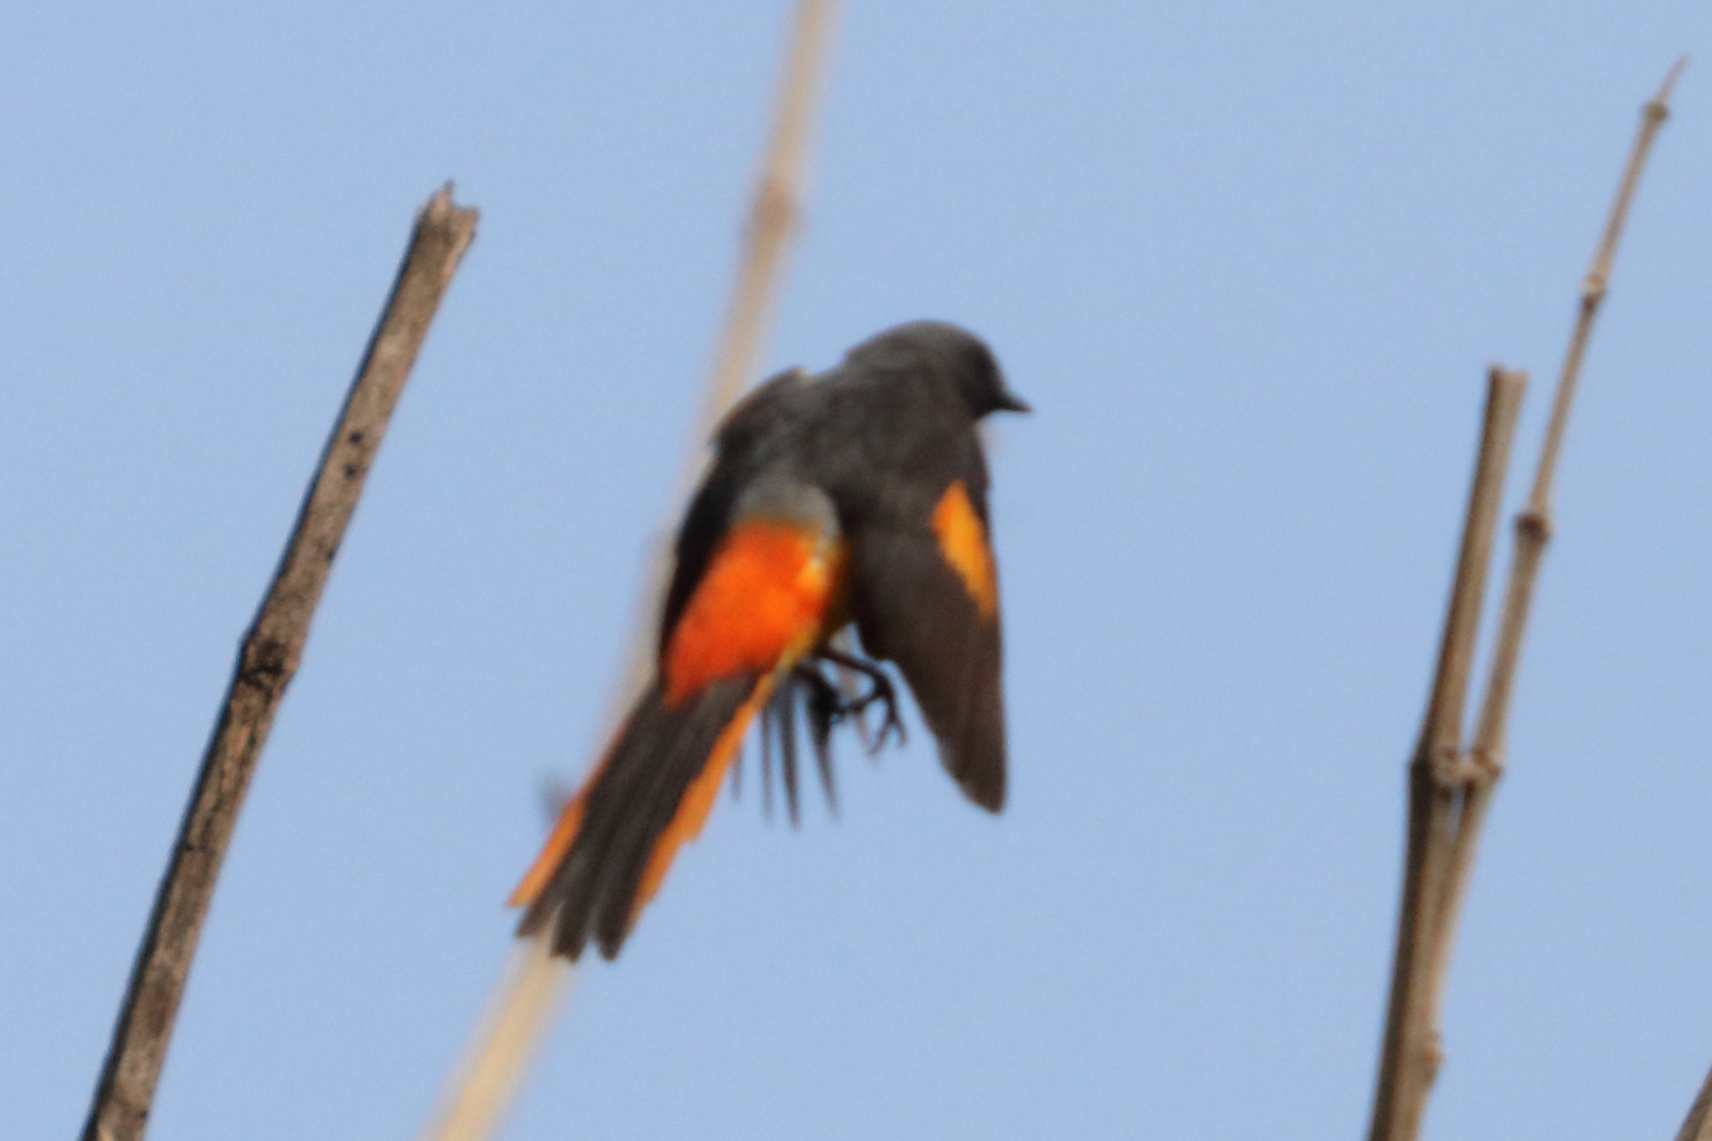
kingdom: Animalia
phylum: Chordata
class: Aves
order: Passeriformes
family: Campephagidae
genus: Pericrocotus
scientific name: Pericrocotus cinnamomeus
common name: Small minivet
